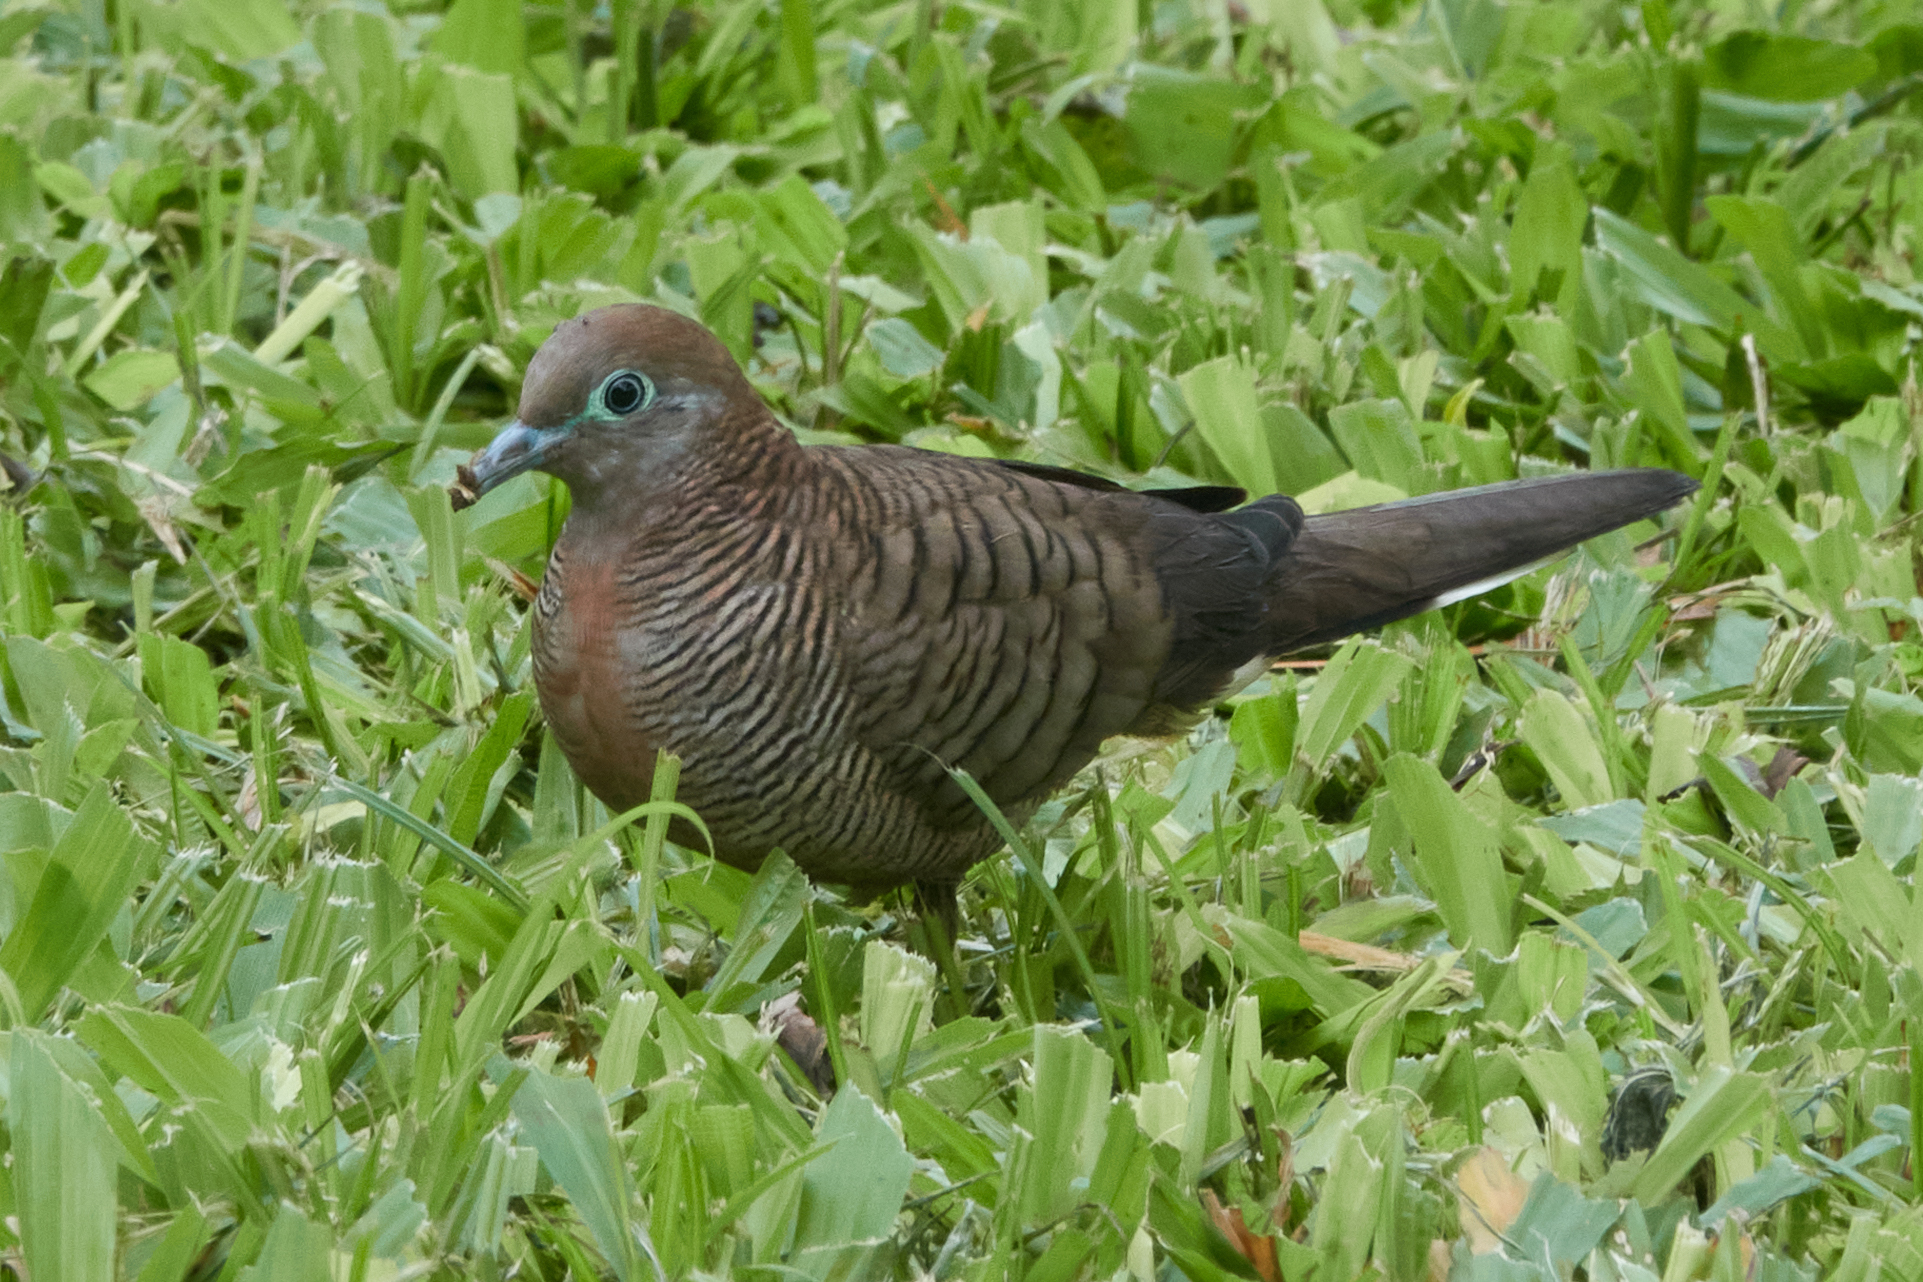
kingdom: Animalia
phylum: Chordata
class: Aves
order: Columbiformes
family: Columbidae
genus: Geopelia
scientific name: Geopelia striata
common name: Zebra dove
